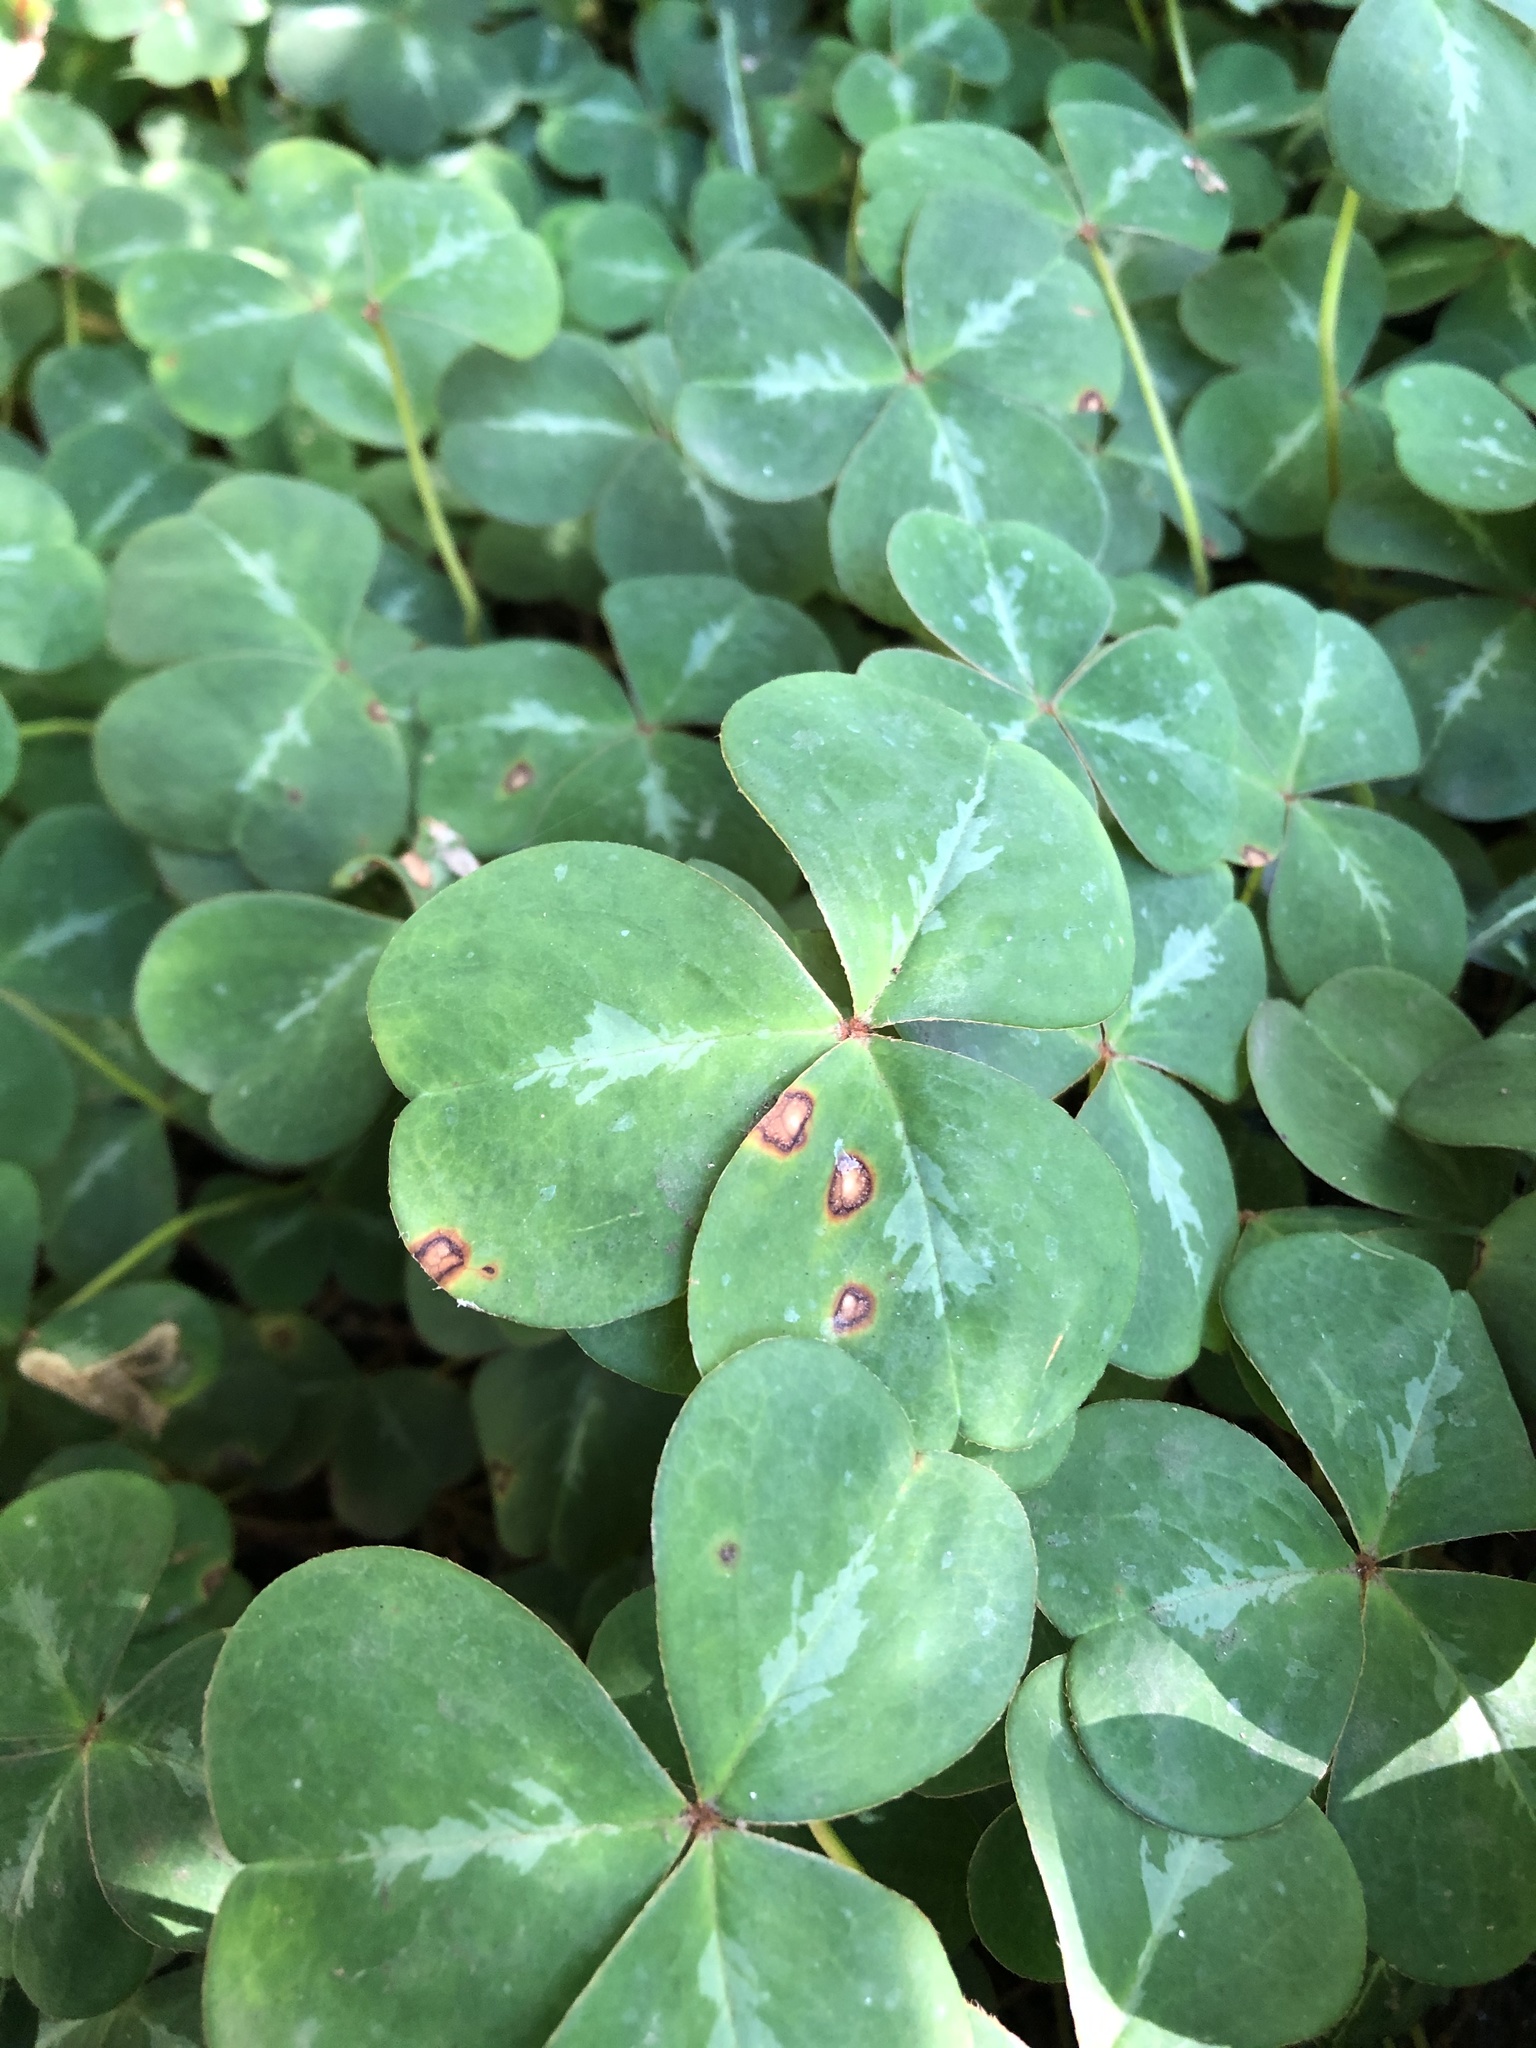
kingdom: Plantae
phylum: Tracheophyta
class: Magnoliopsida
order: Oxalidales
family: Oxalidaceae
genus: Oxalis
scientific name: Oxalis oregana
